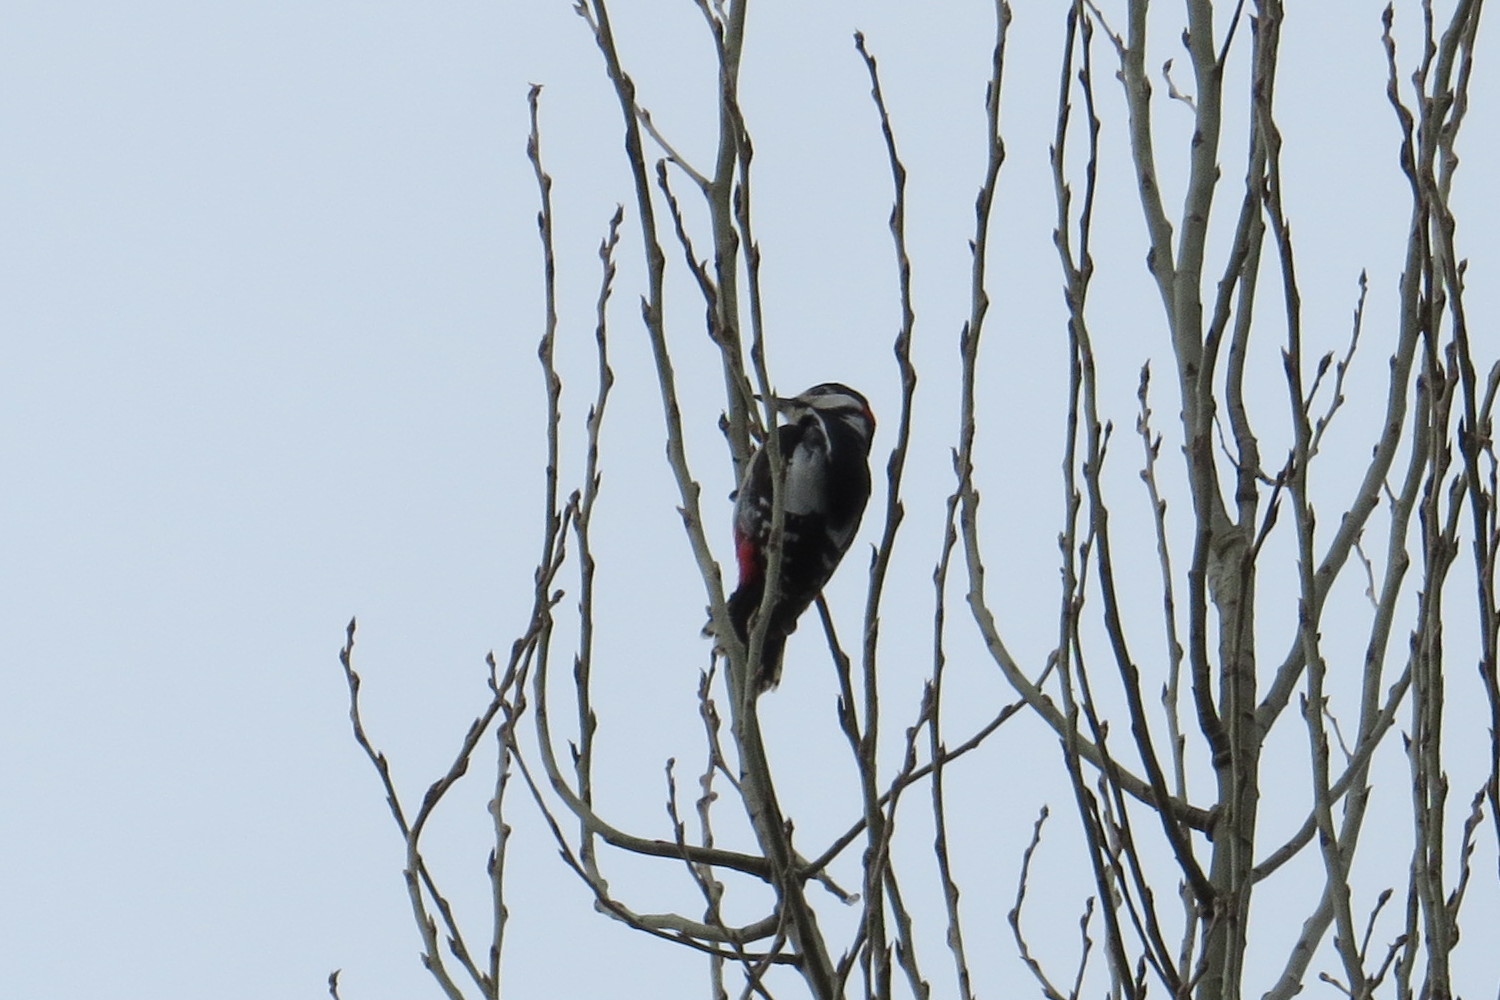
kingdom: Animalia
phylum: Chordata
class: Aves
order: Piciformes
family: Picidae
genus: Dendrocopos
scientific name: Dendrocopos major
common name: Great spotted woodpecker
